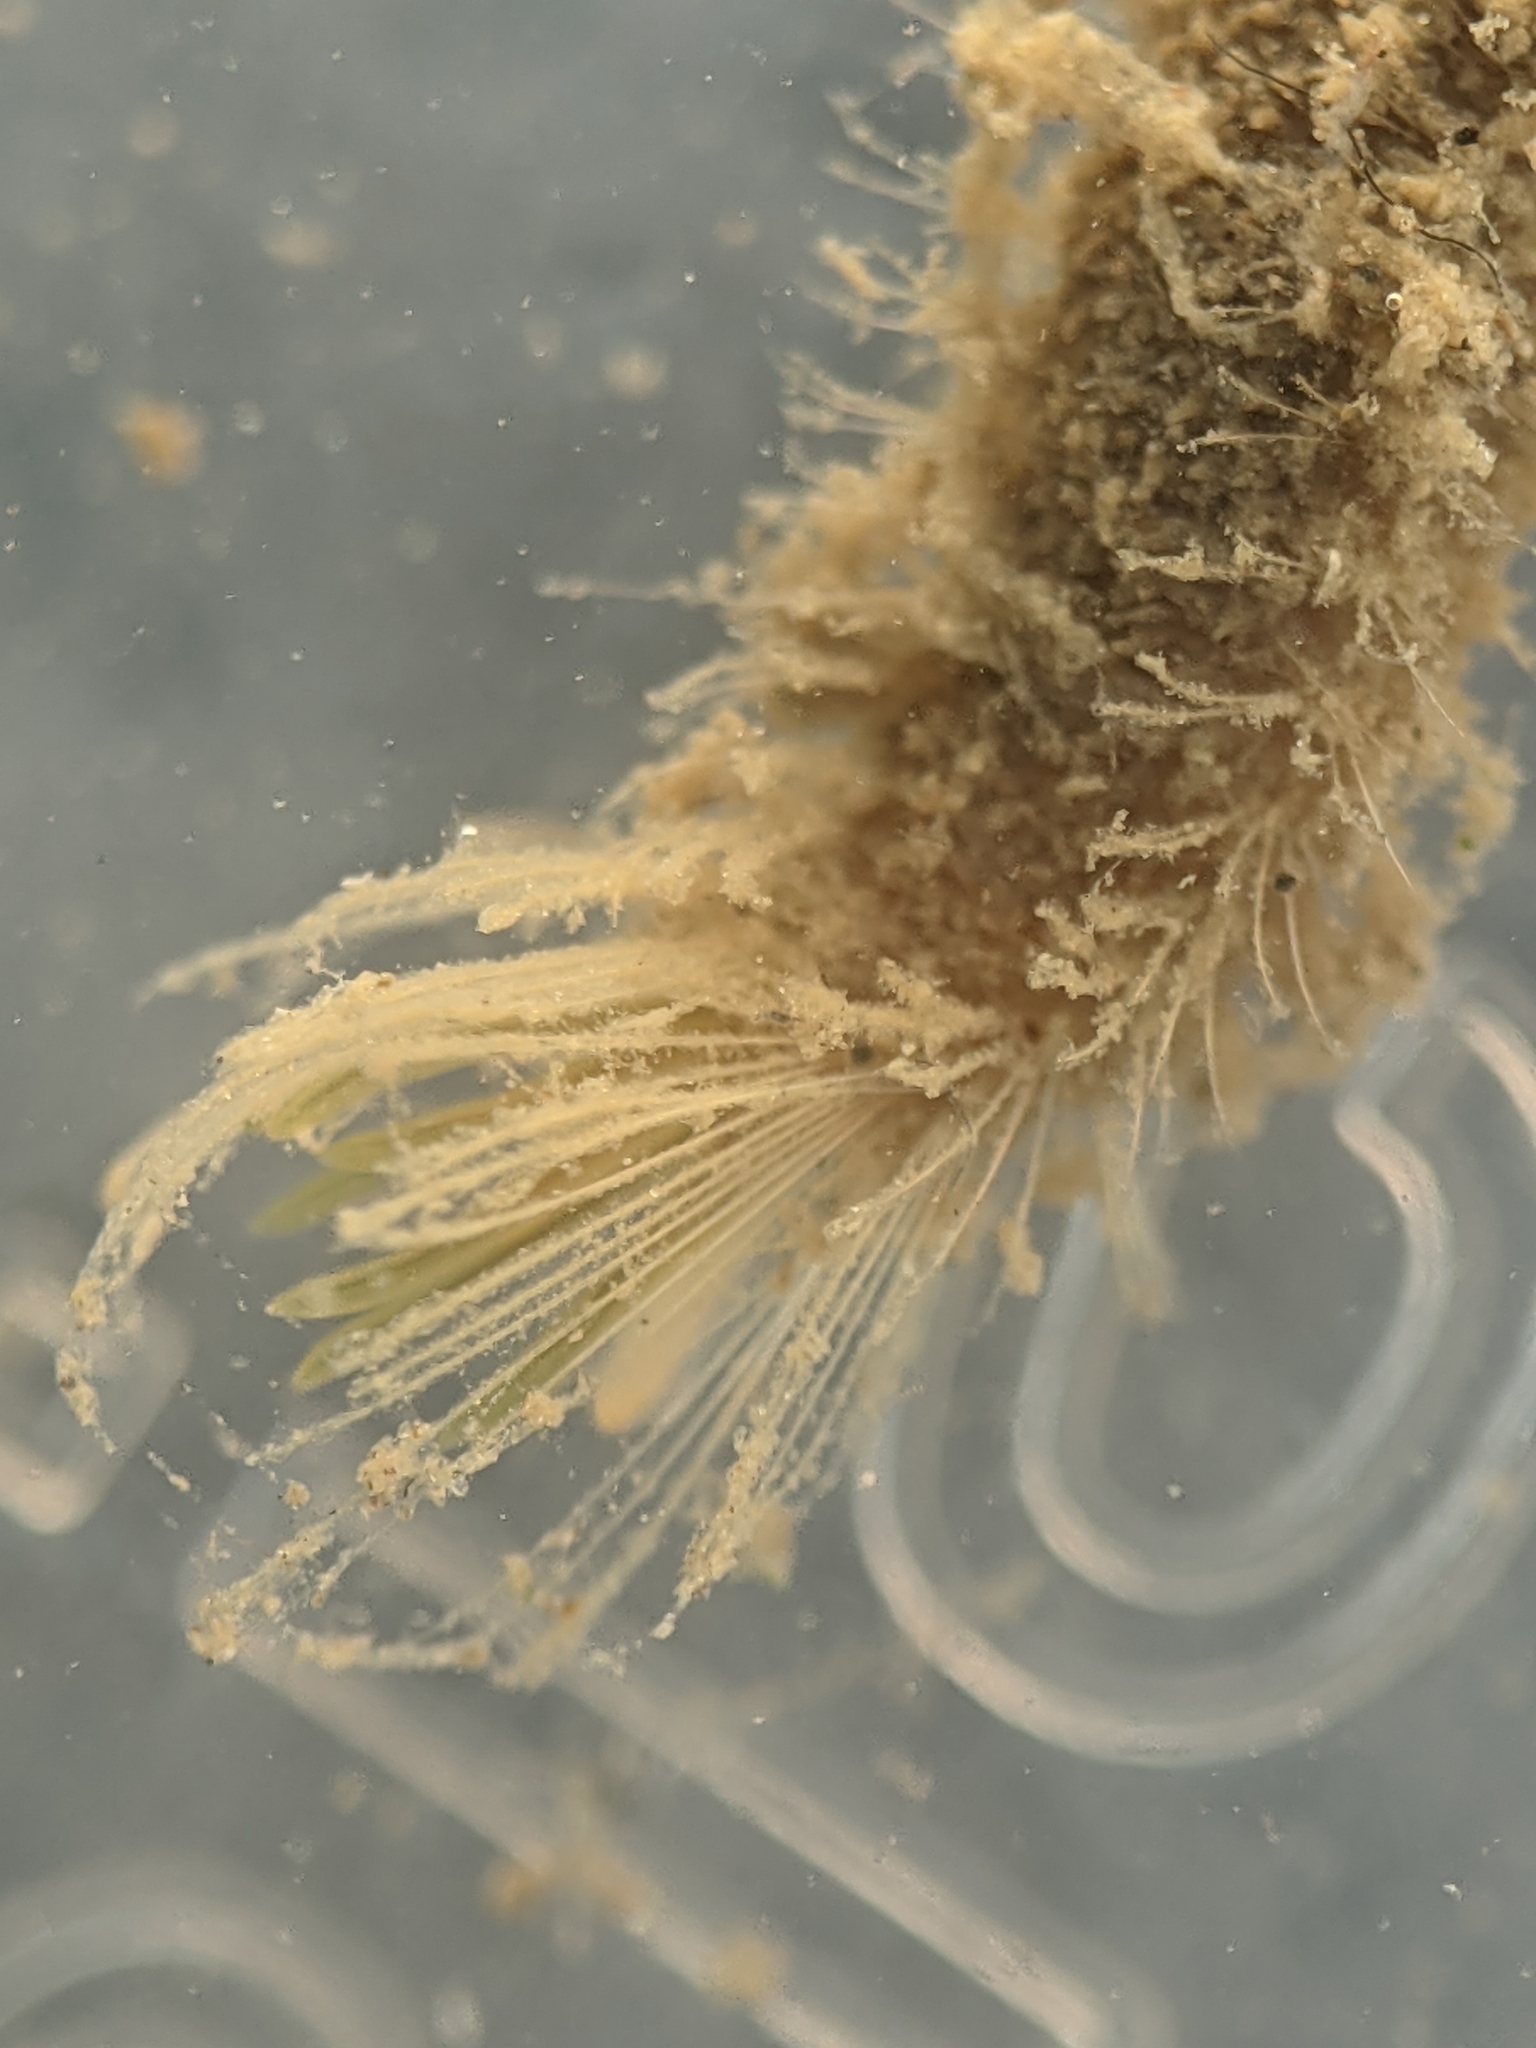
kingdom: Animalia
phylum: Annelida
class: Polychaeta
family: Flabelligeridae
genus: Pherusa
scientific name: Pherusa andersonorum
